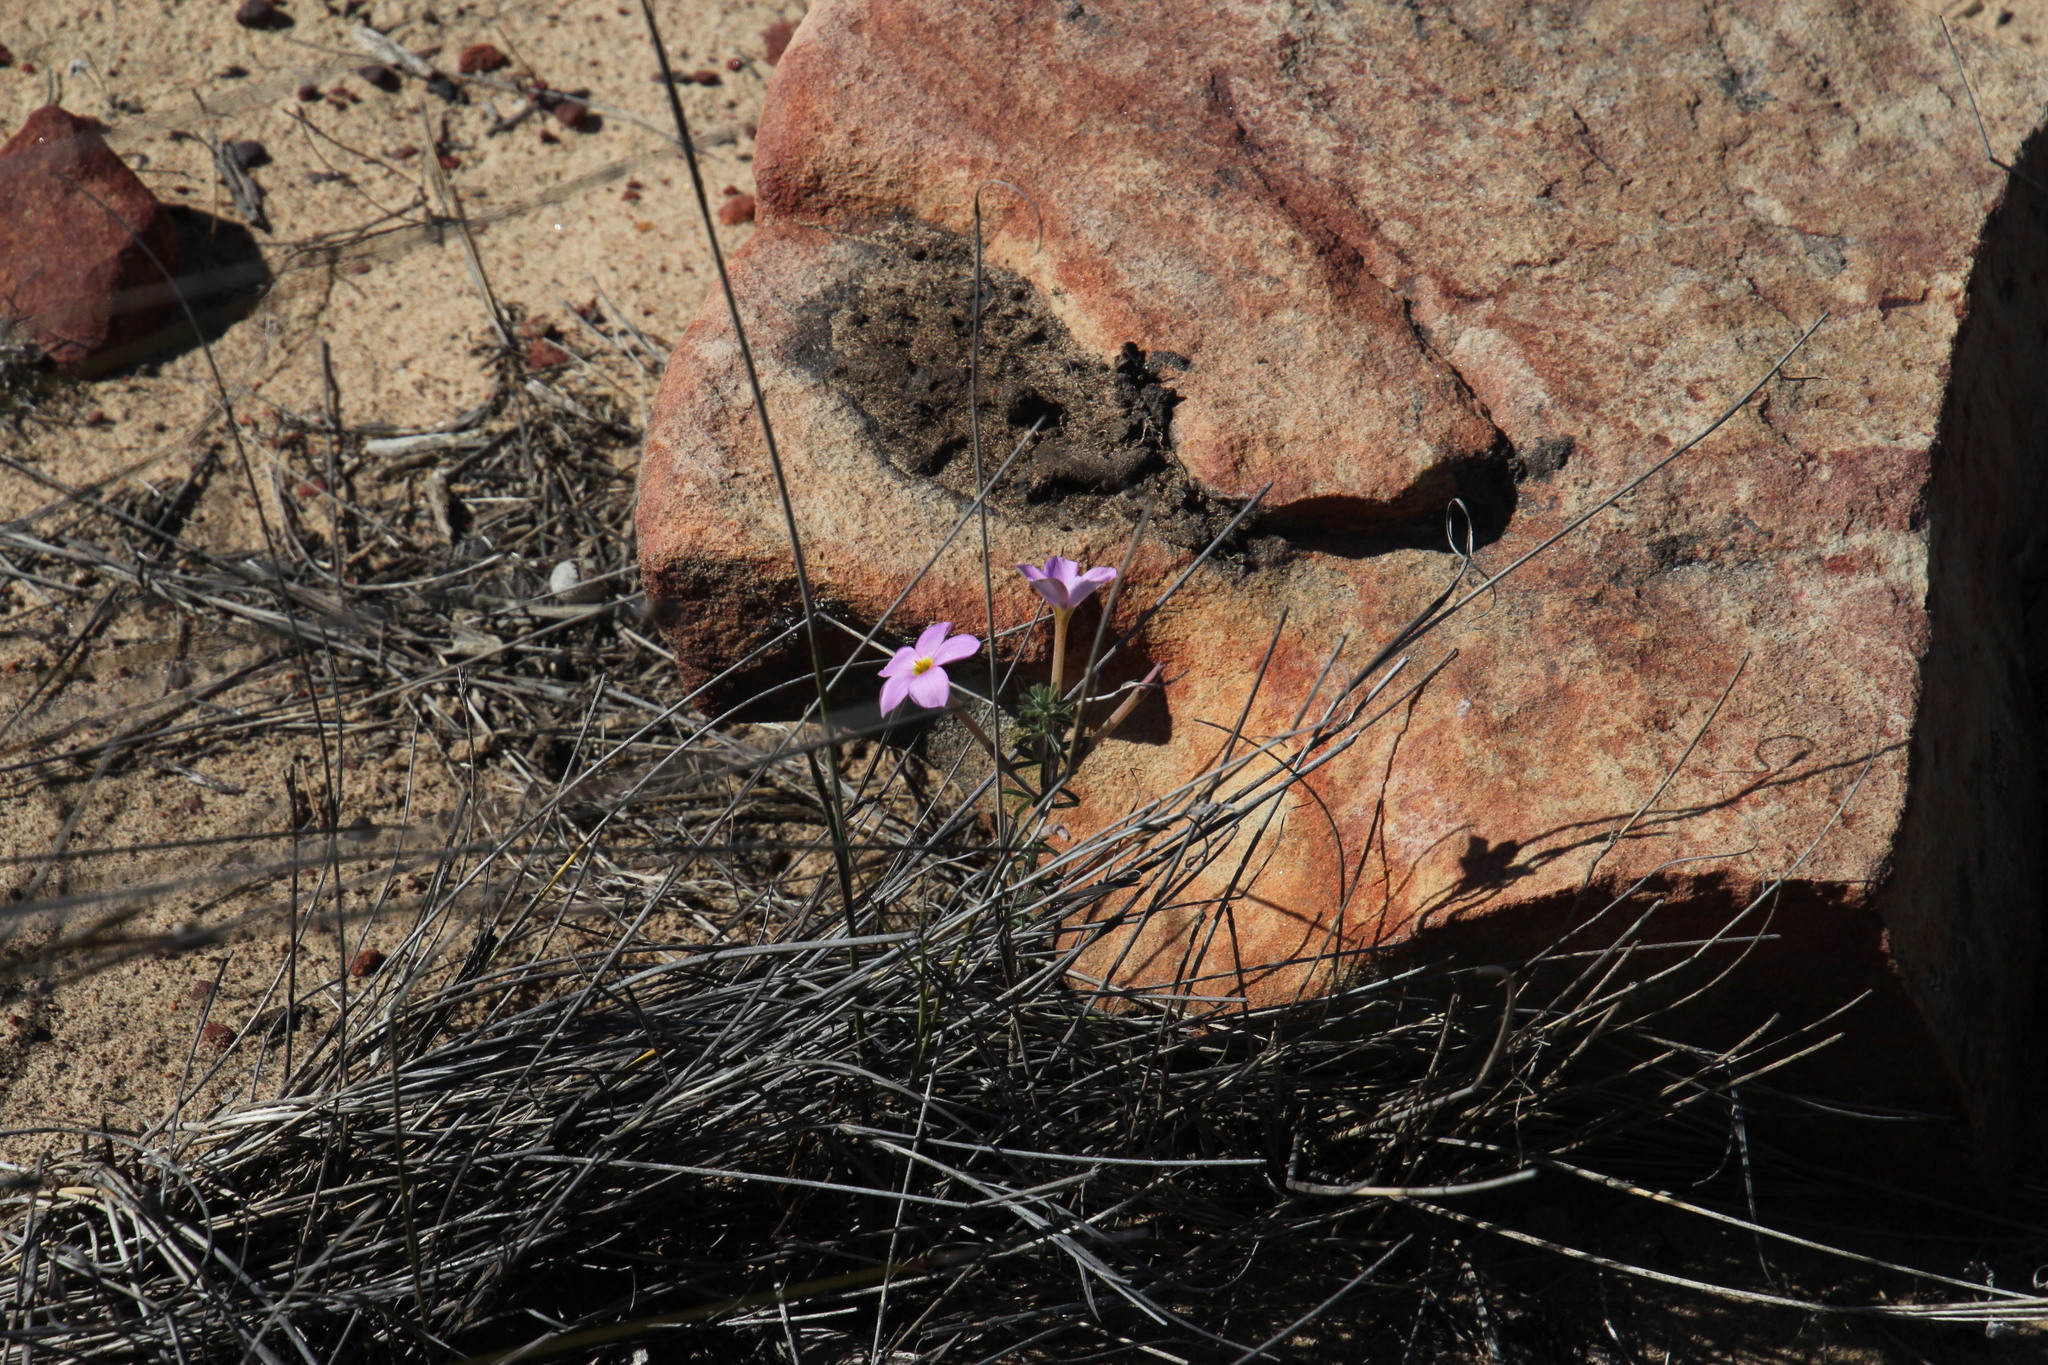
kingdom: Plantae
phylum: Tracheophyta
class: Magnoliopsida
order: Oxalidales
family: Oxalidaceae
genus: Oxalis
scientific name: Oxalis hirta
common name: Tropical woodsorrel
